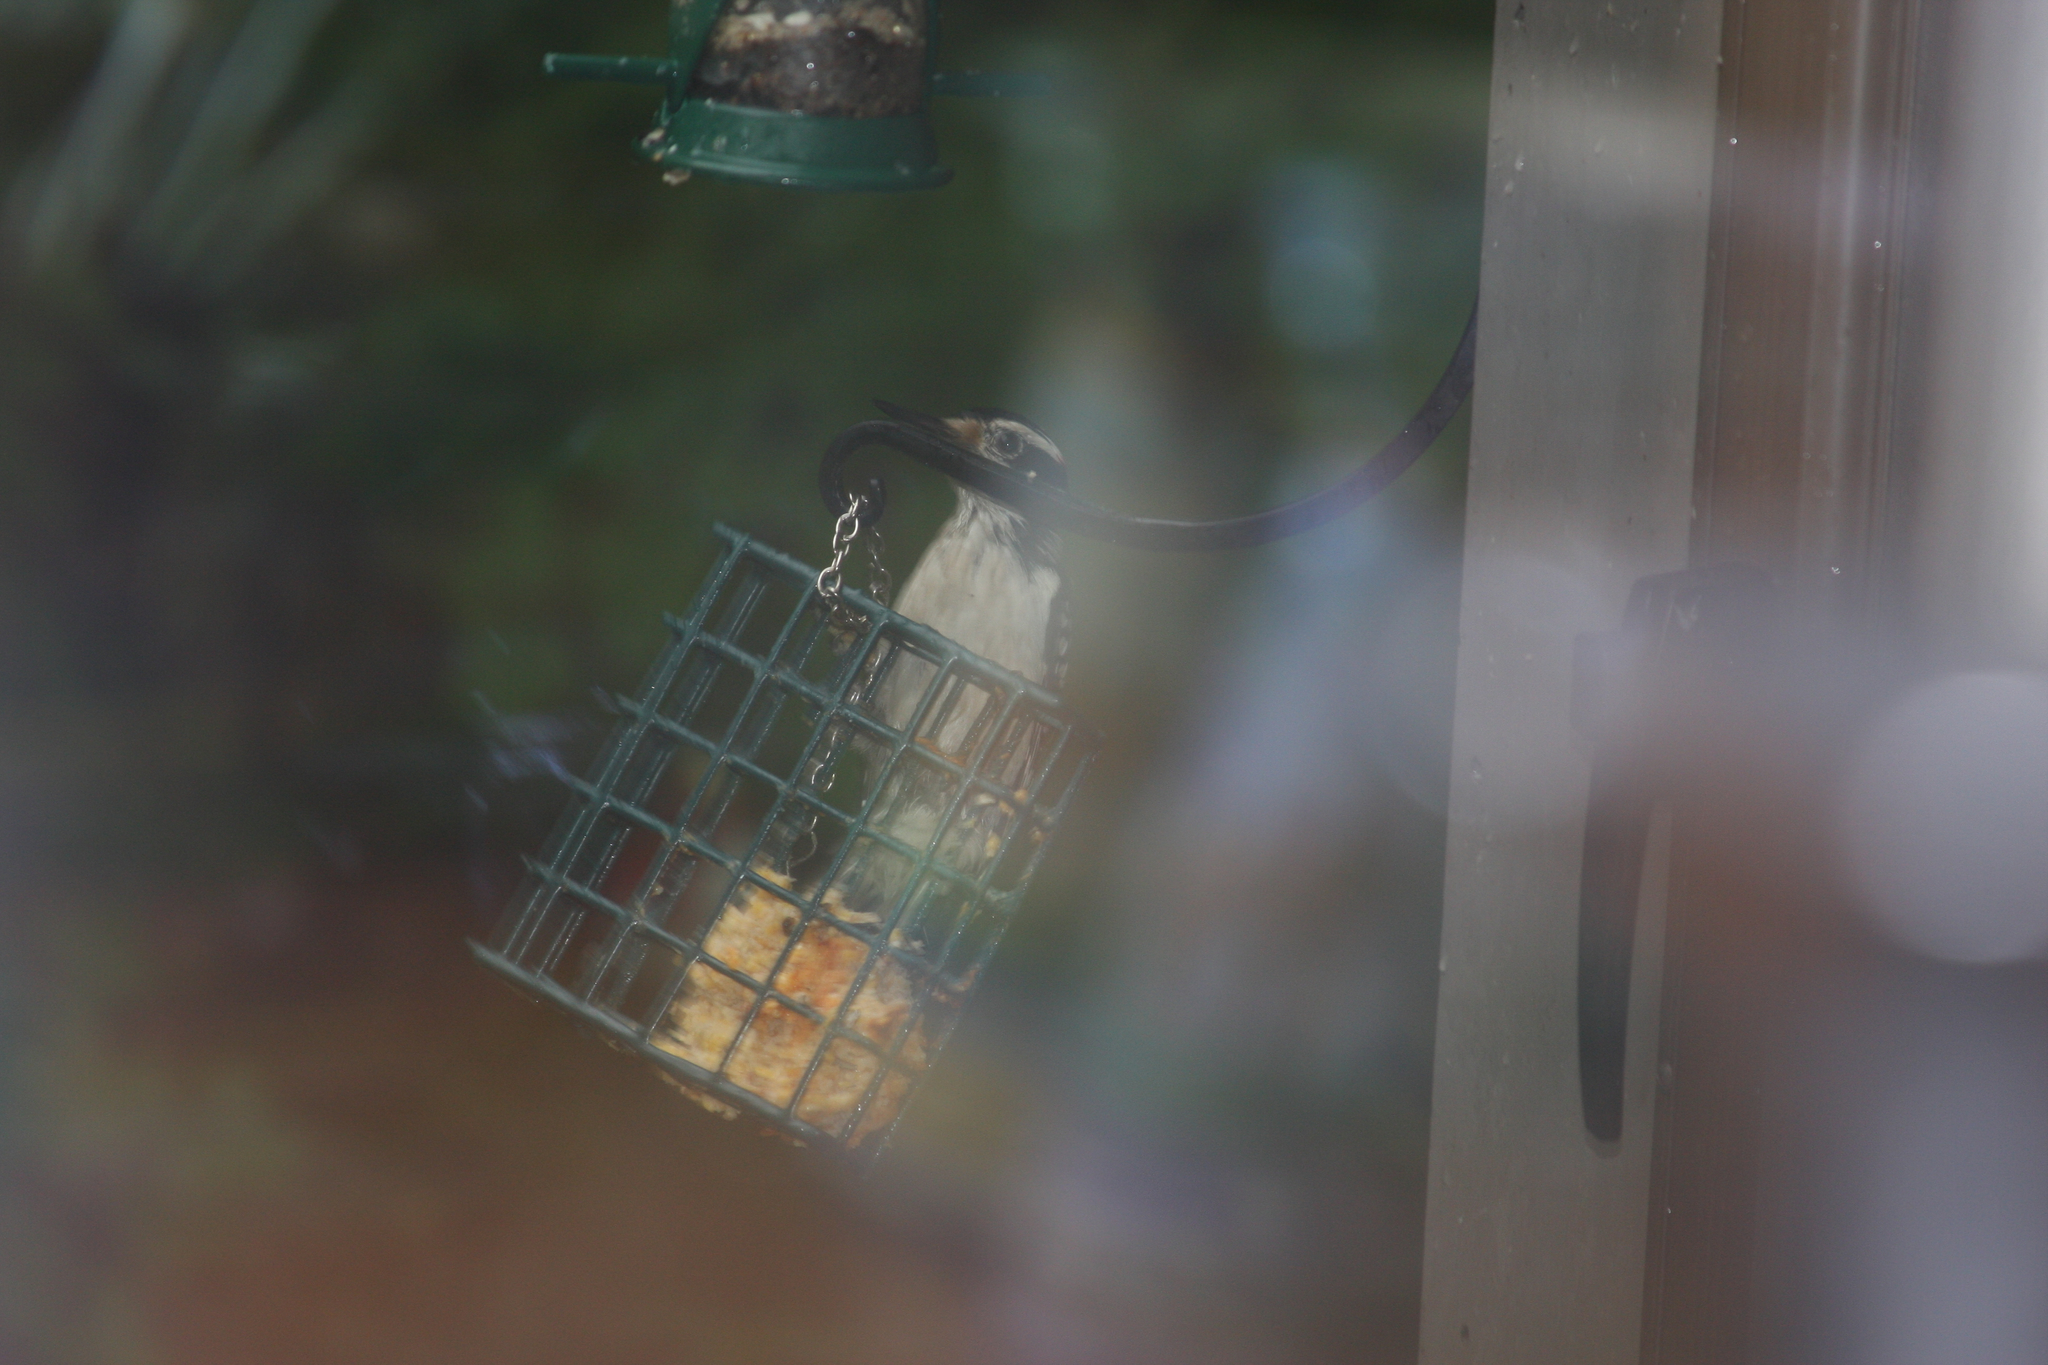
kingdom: Animalia
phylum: Chordata
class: Aves
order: Piciformes
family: Picidae
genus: Leuconotopicus
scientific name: Leuconotopicus villosus
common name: Hairy woodpecker
